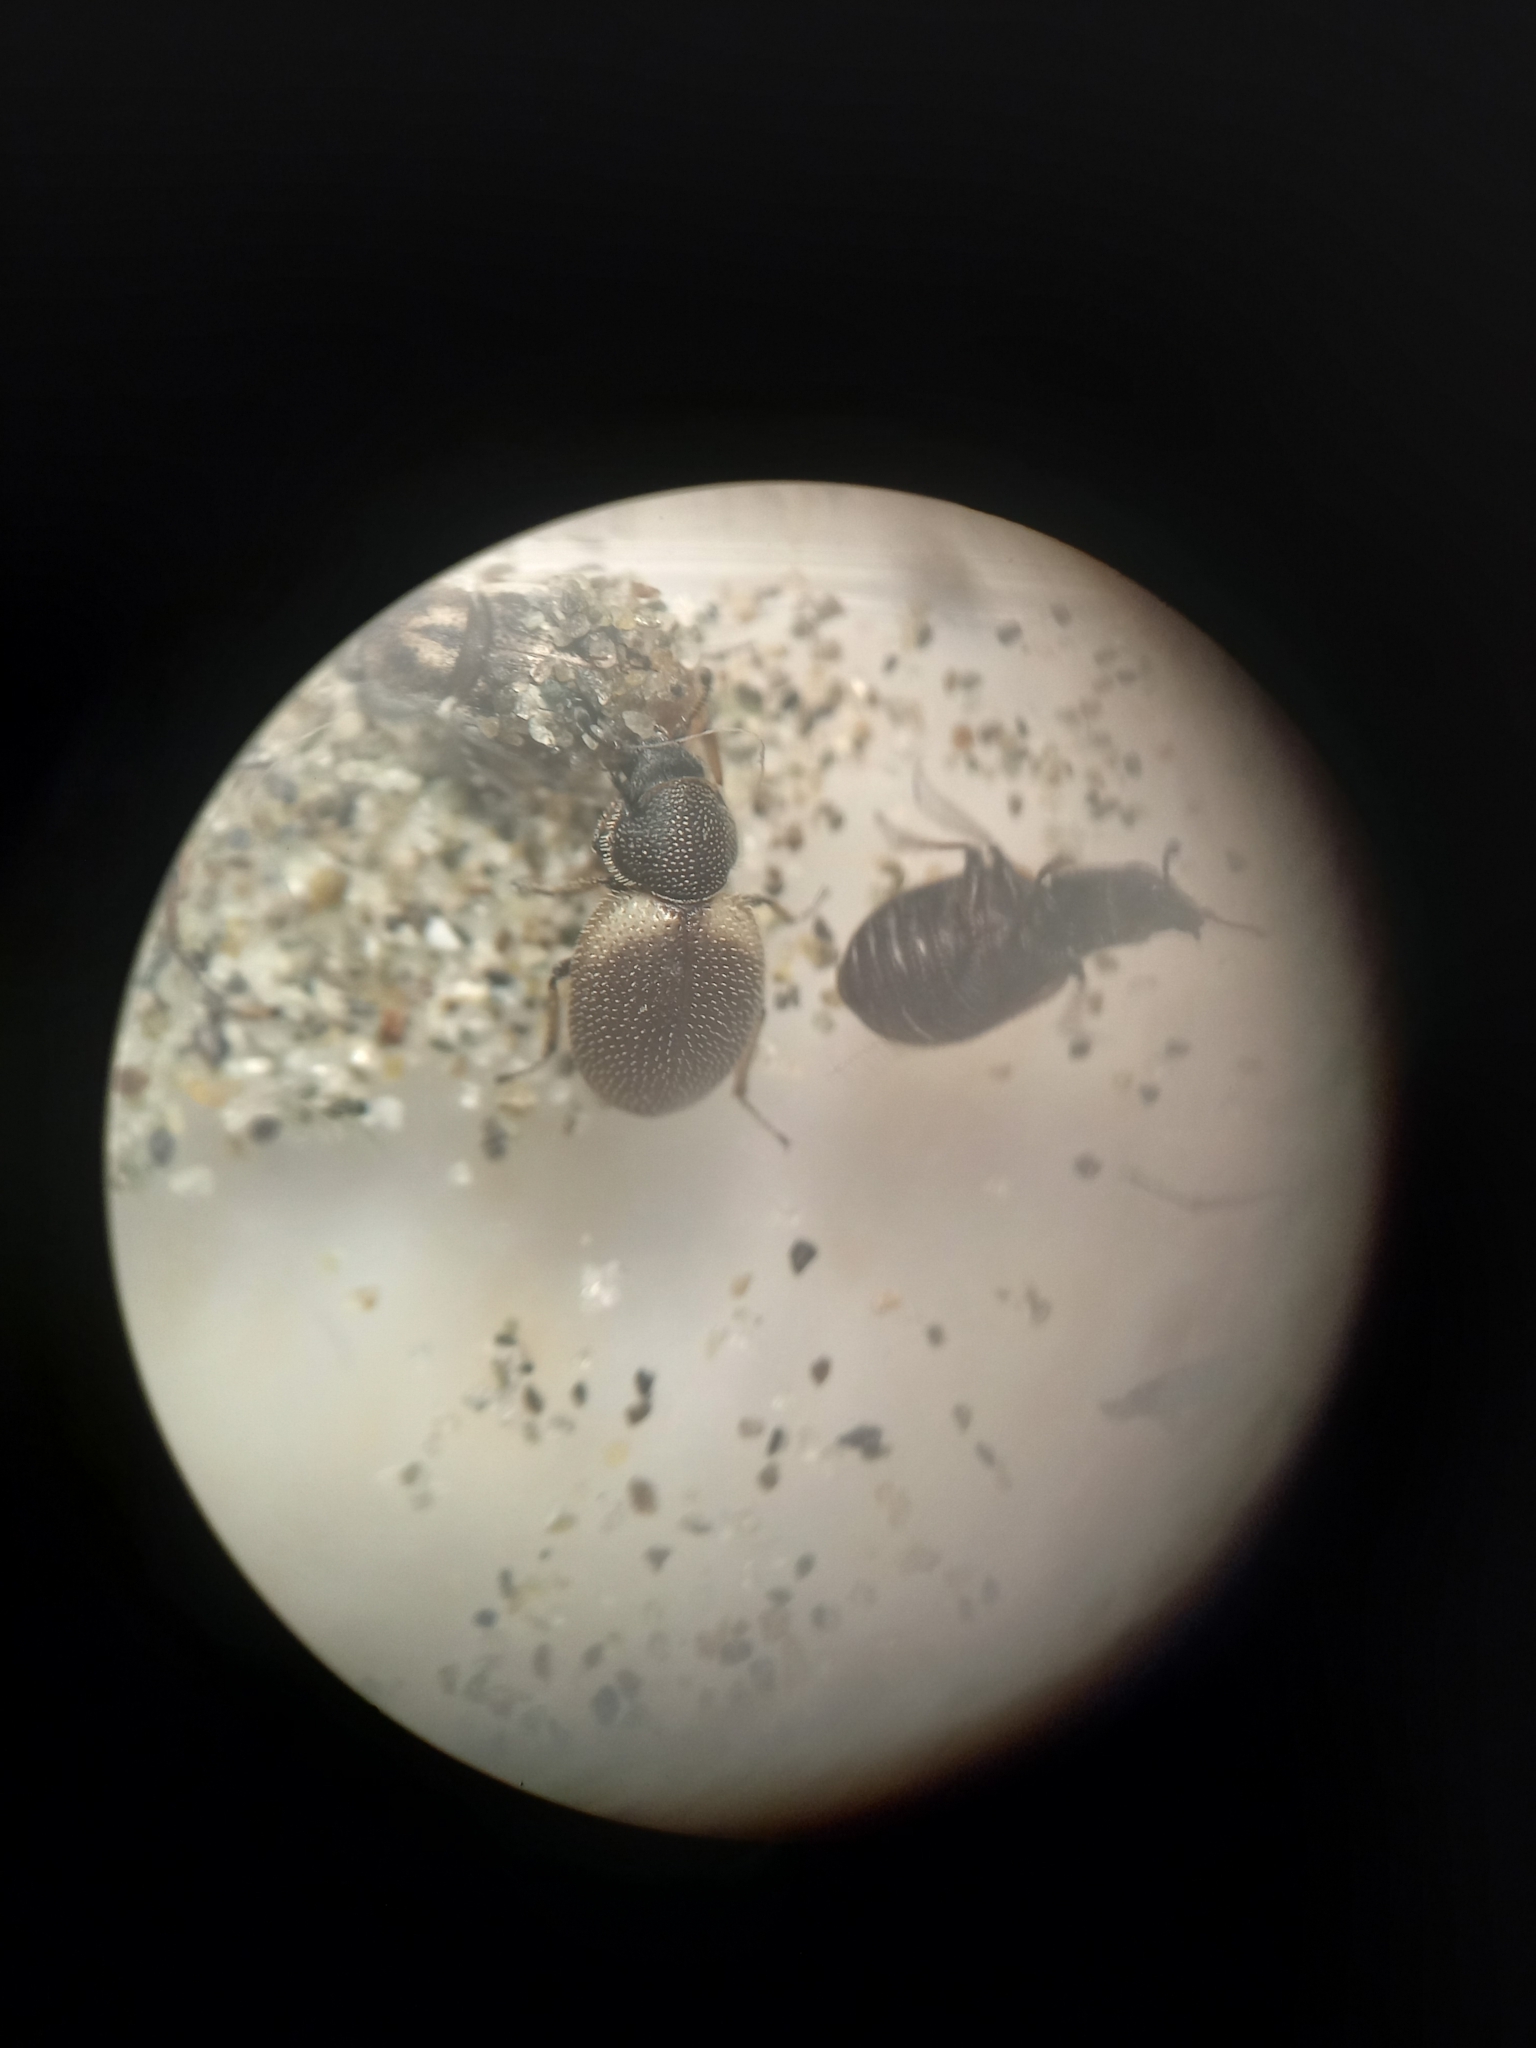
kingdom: Animalia
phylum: Arthropoda
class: Insecta
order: Coleoptera
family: Phycosecidae
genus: Phycosecis
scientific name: Phycosecis
